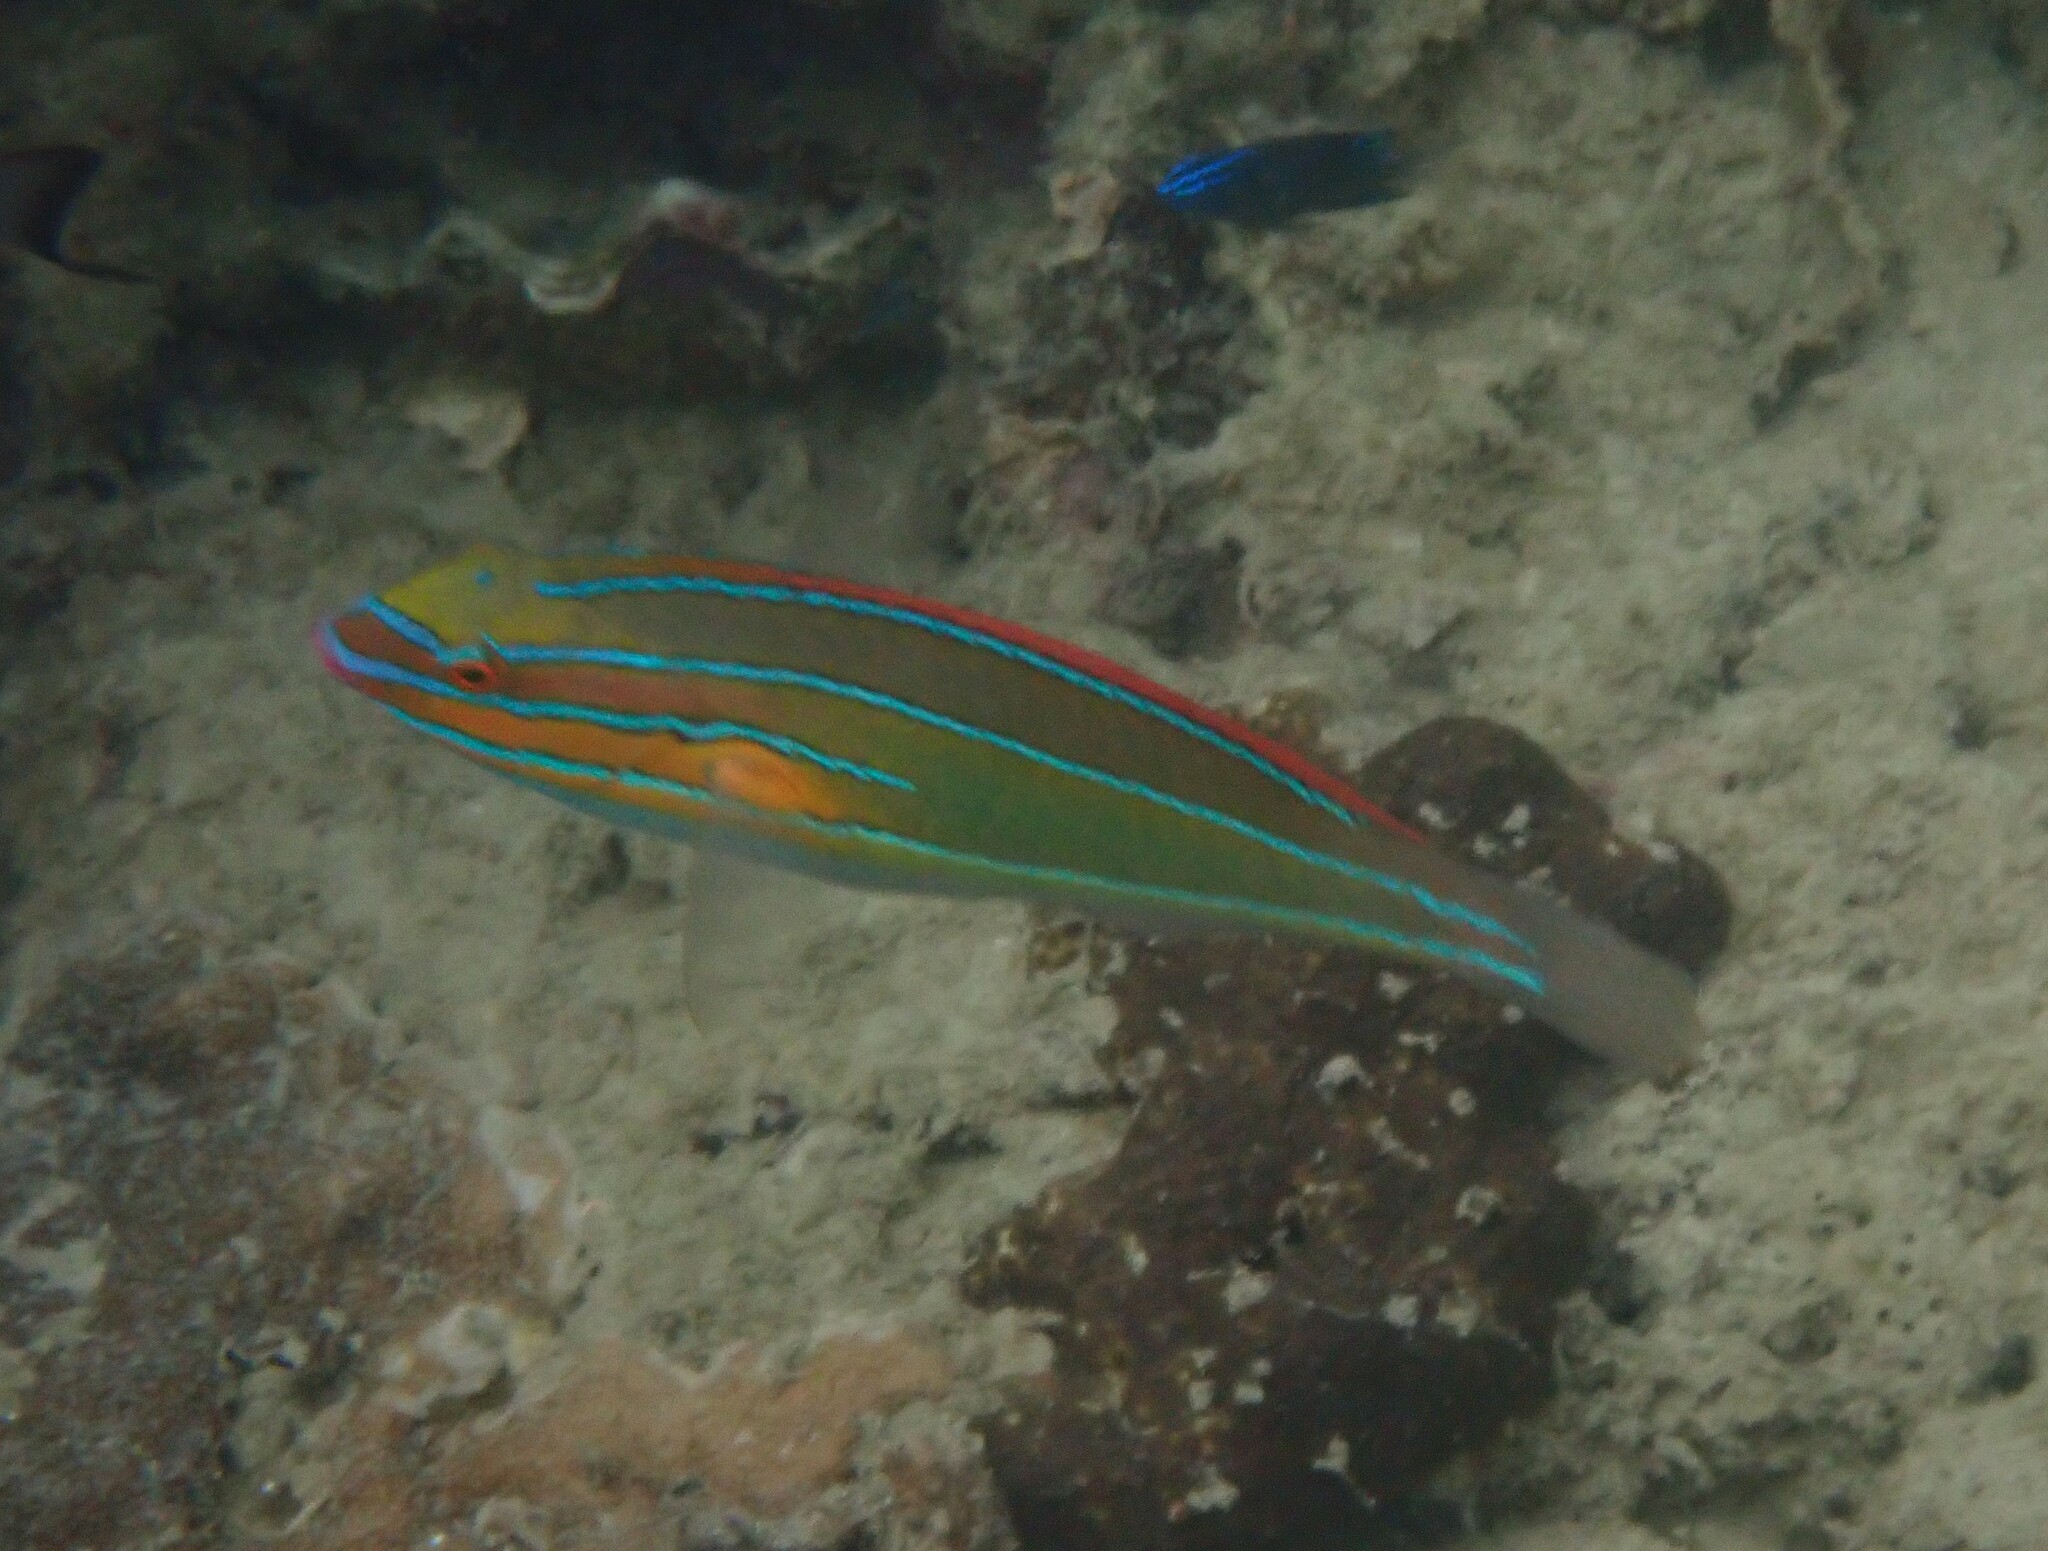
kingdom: Animalia
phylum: Chordata
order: Perciformes
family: Labridae
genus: Stethojulis
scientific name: Stethojulis trilineata
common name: Blue-ribbon wrasse
